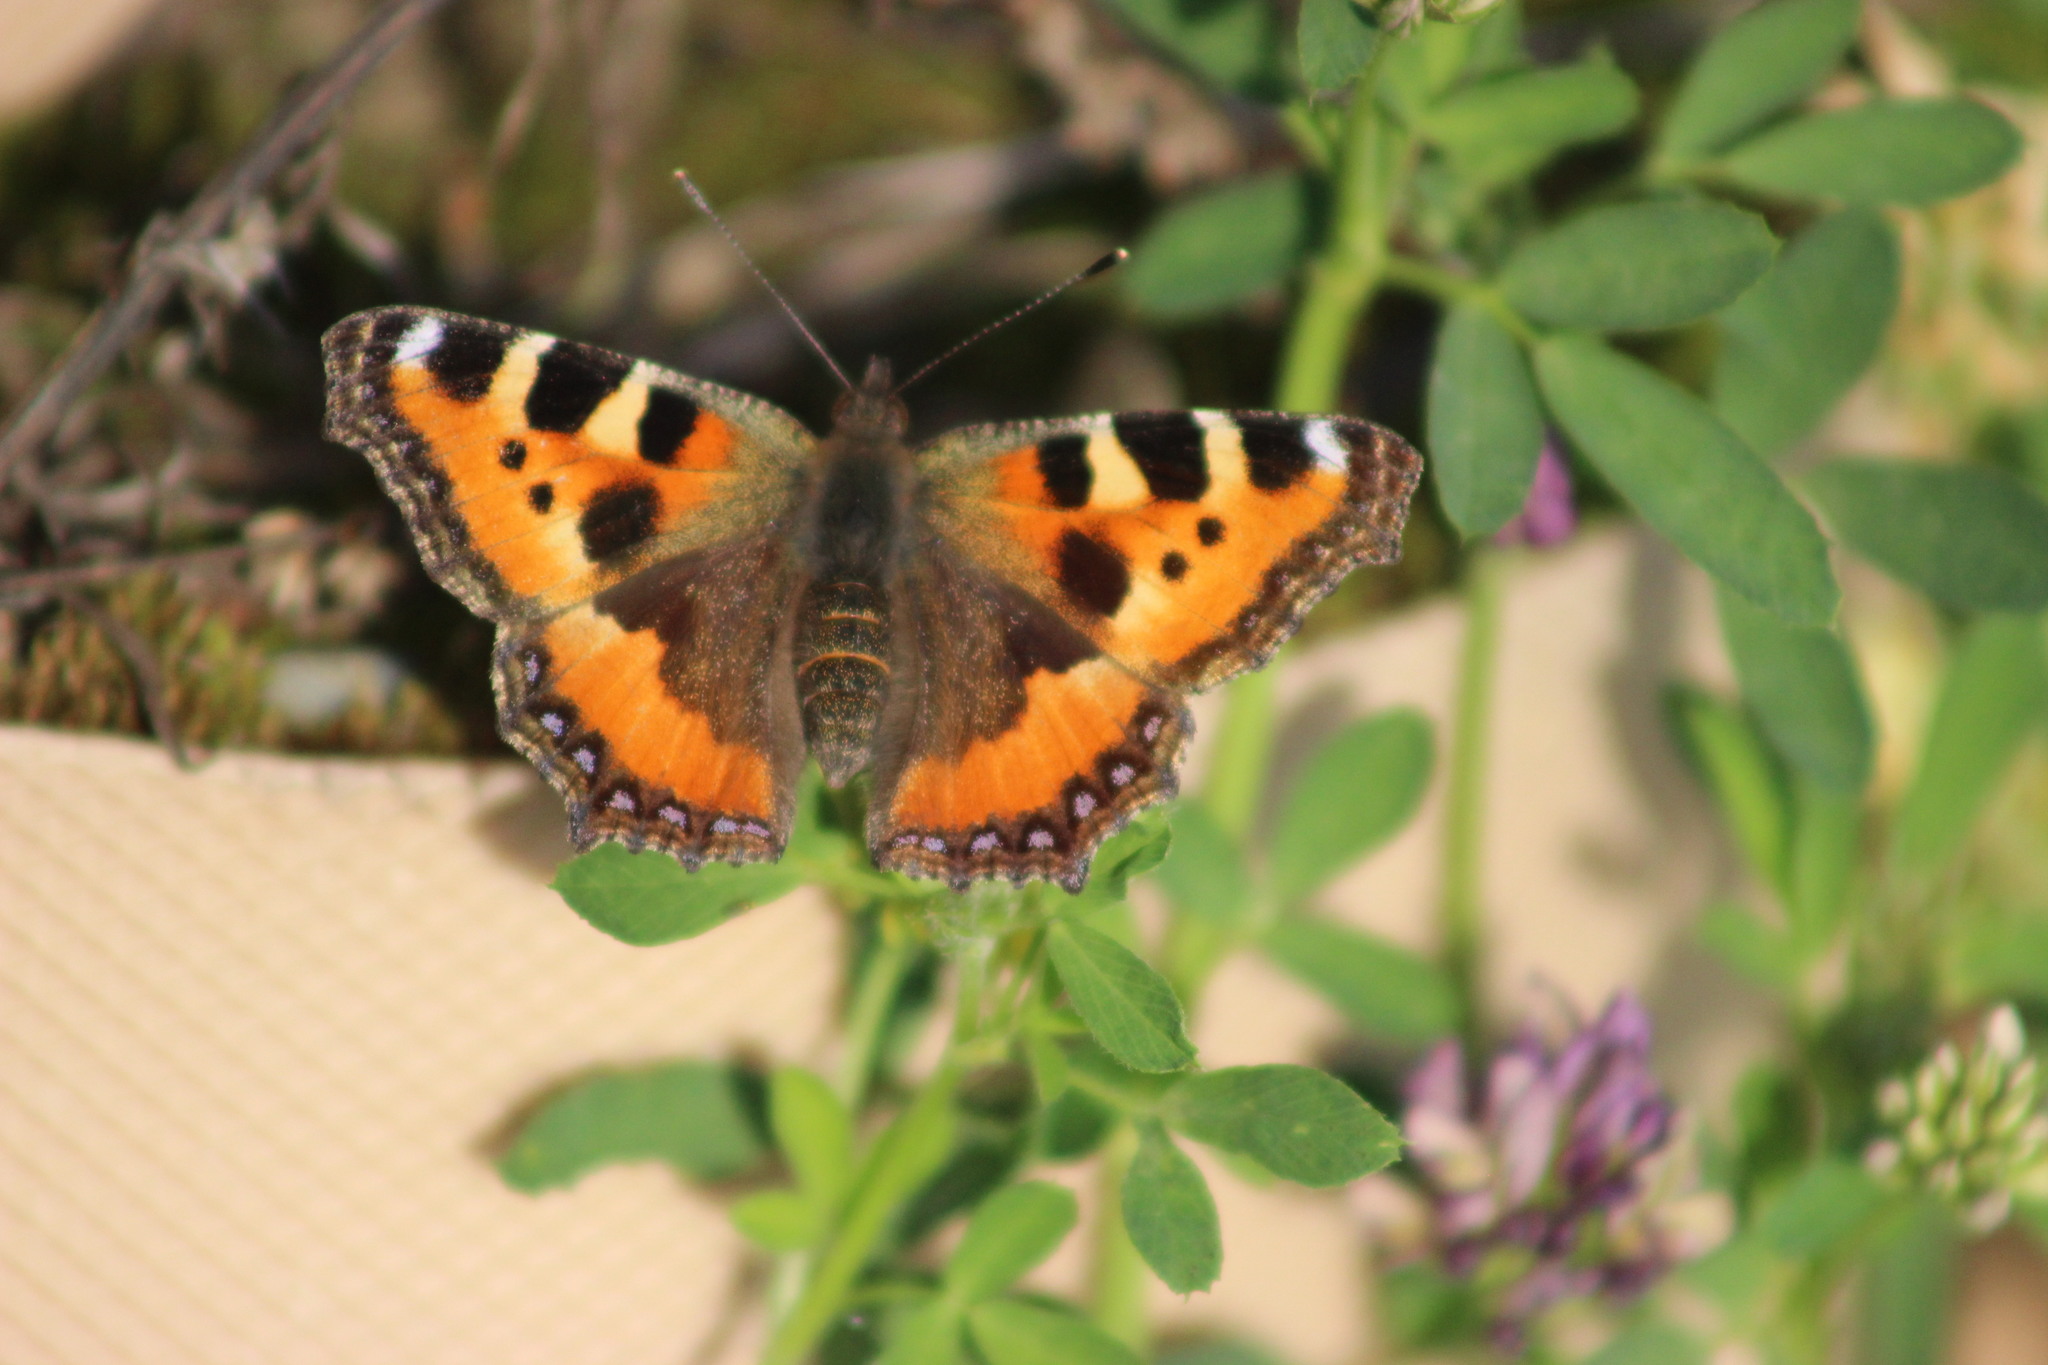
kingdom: Animalia
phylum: Arthropoda
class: Insecta
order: Lepidoptera
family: Nymphalidae
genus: Aglais
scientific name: Aglais urticae
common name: Small tortoiseshell
